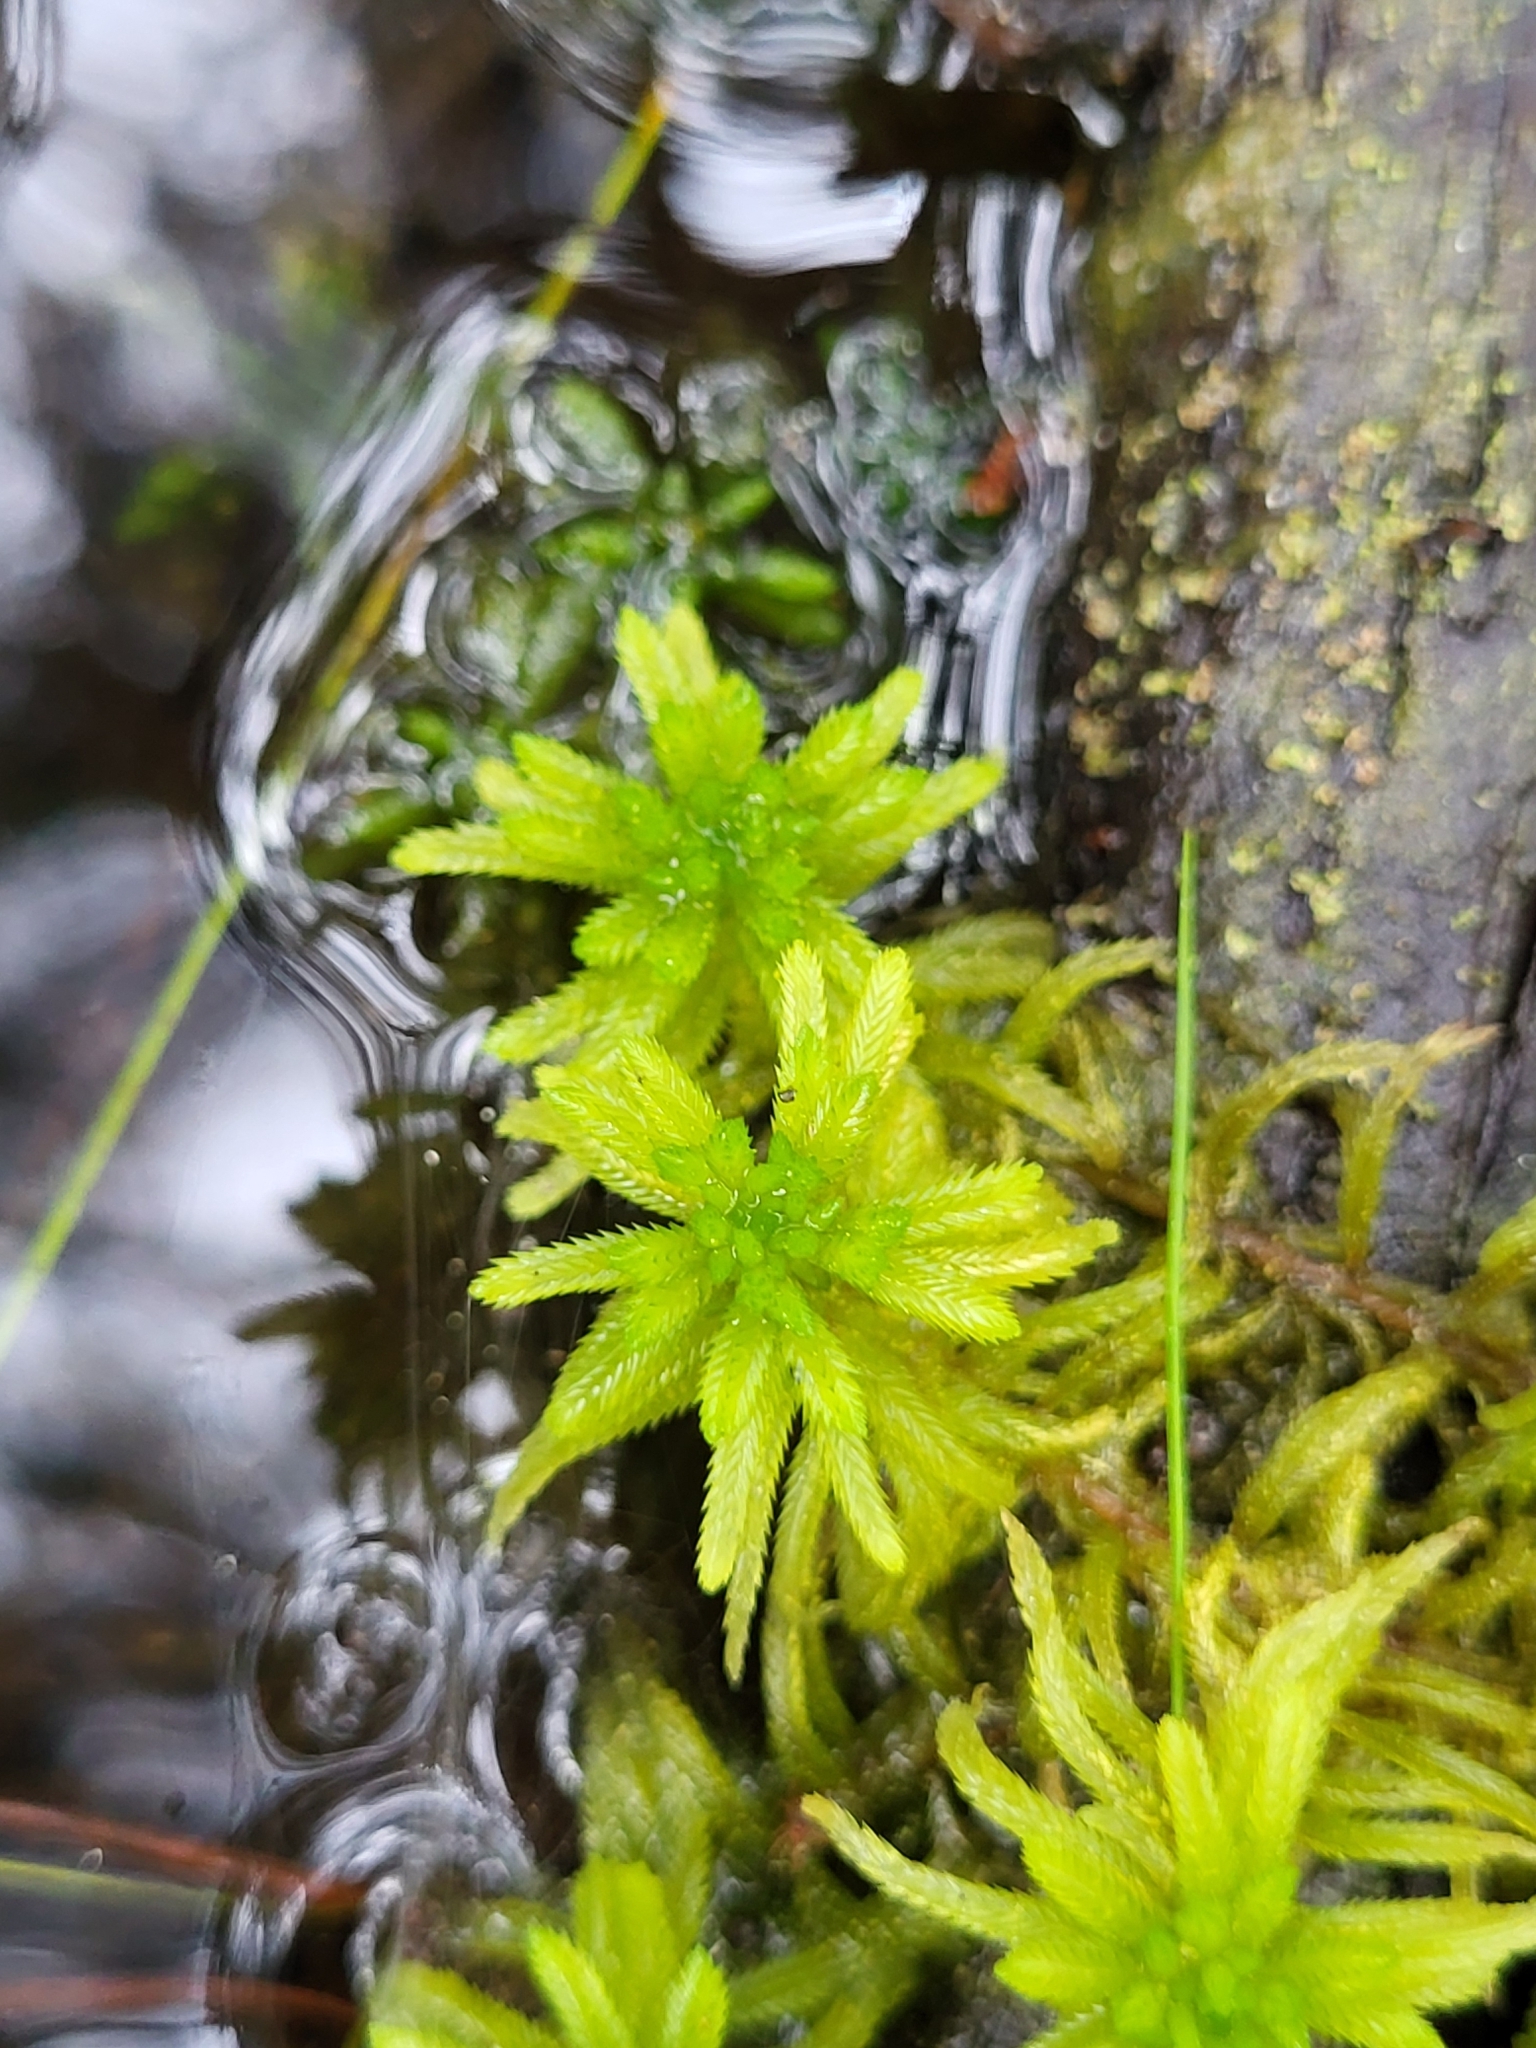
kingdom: Plantae
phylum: Bryophyta
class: Sphagnopsida
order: Sphagnales
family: Sphagnaceae
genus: Sphagnum
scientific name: Sphagnum pulchrum
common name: Beautiful peat moss
